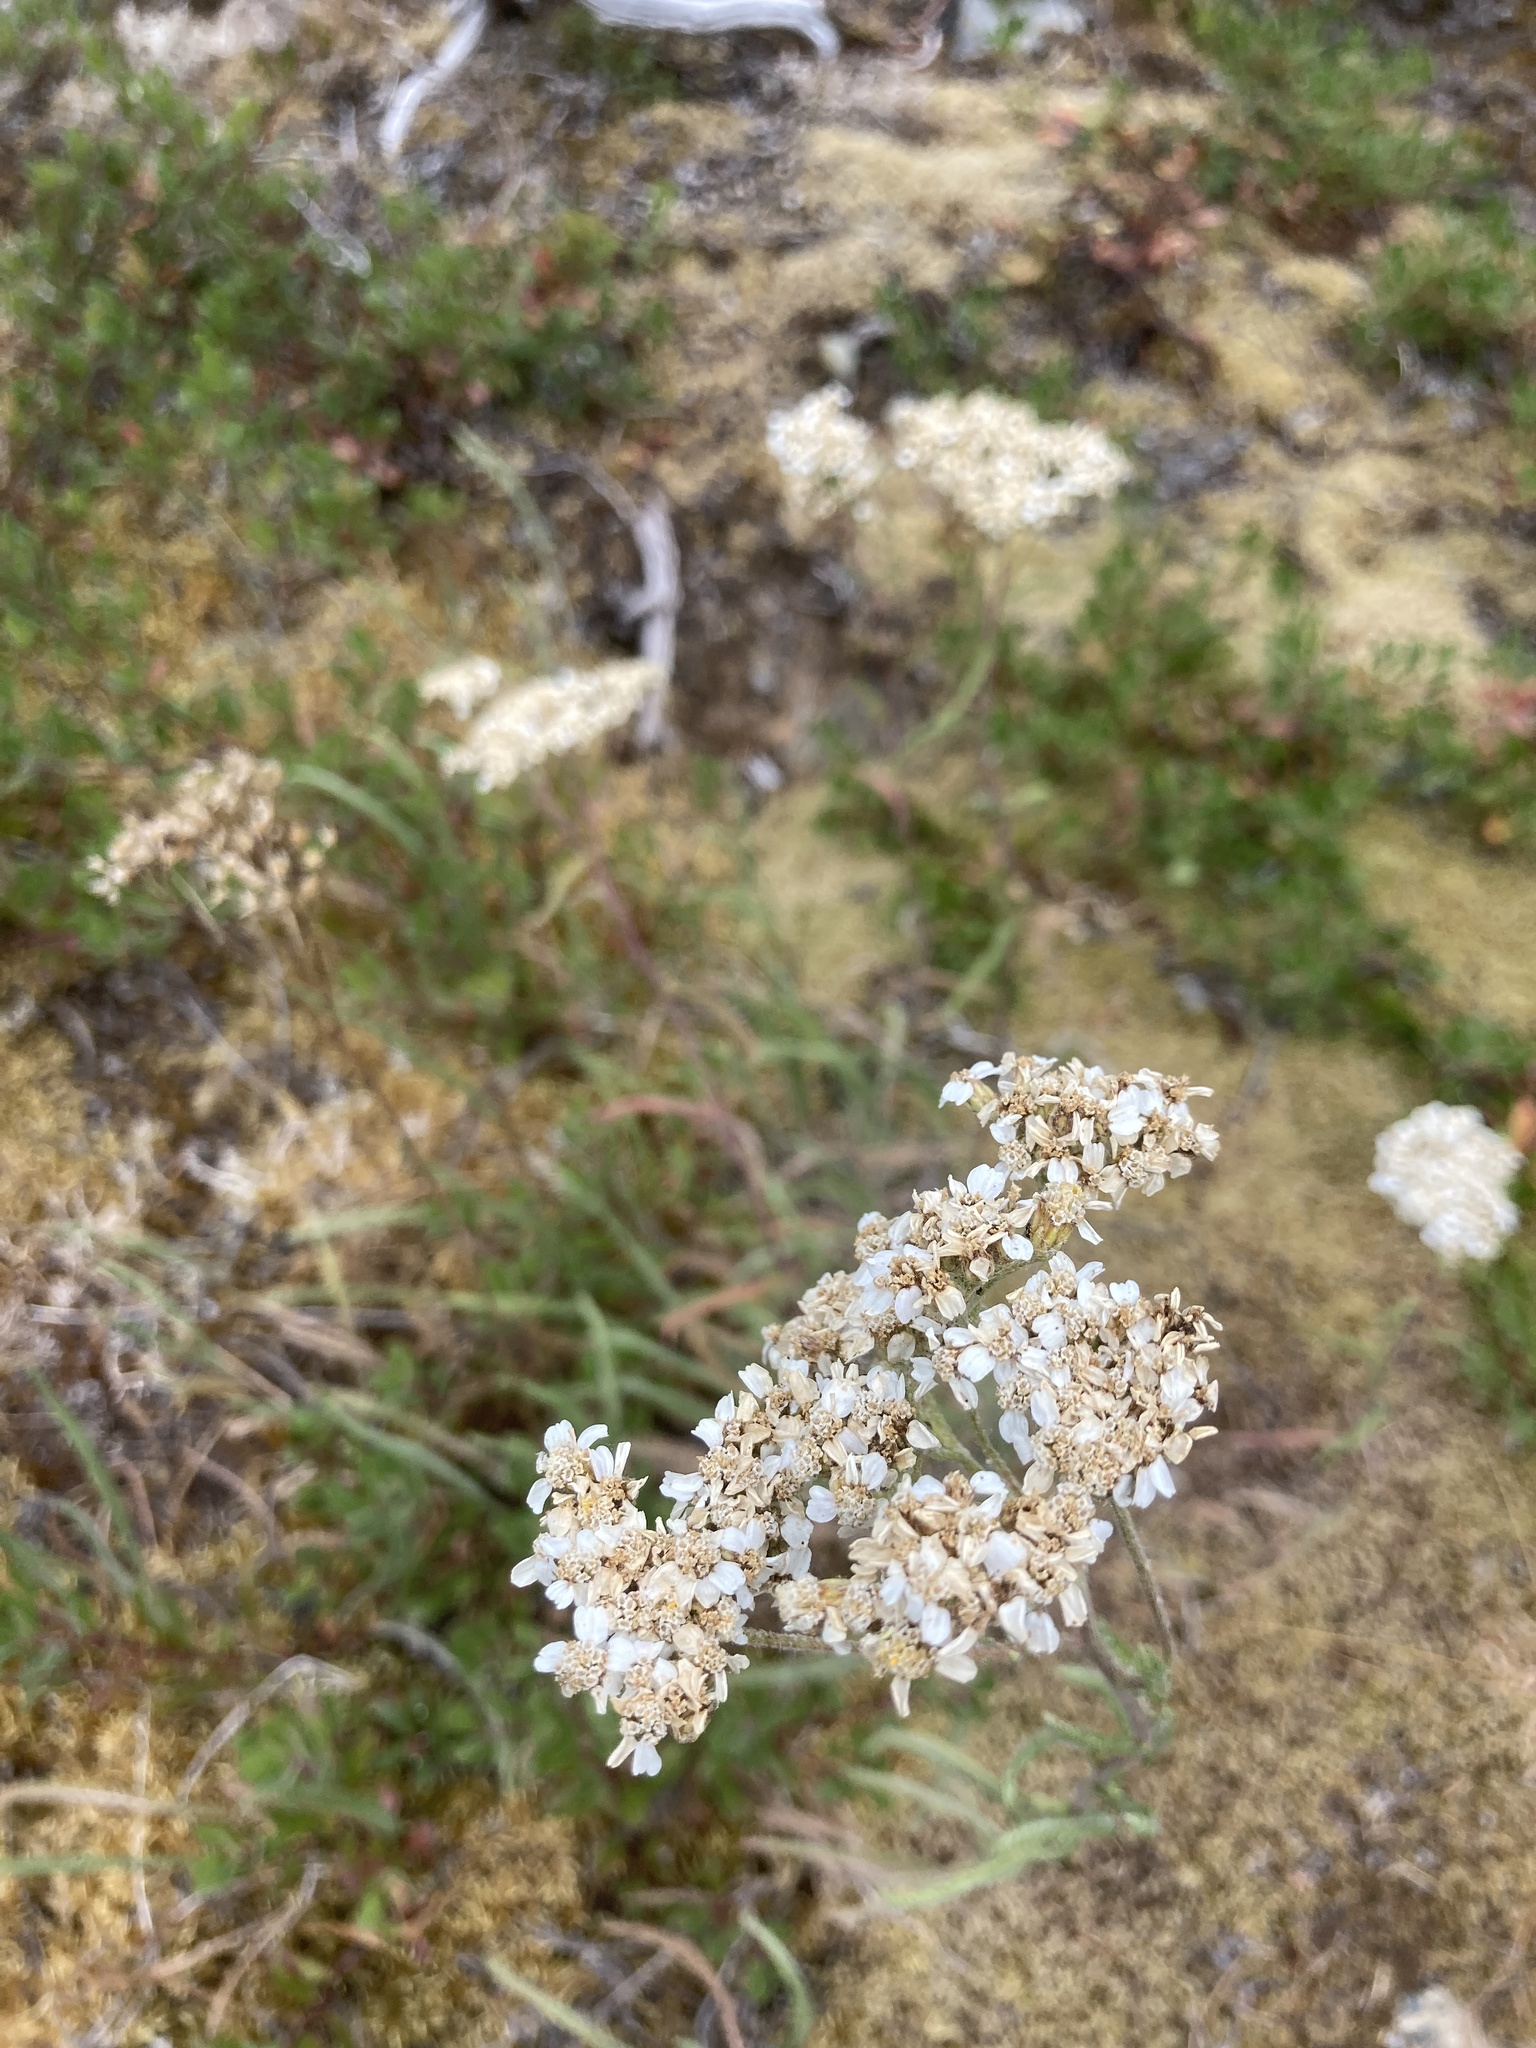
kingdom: Plantae
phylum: Tracheophyta
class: Magnoliopsida
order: Asterales
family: Asteraceae
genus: Achillea
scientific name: Achillea millefolium
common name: Yarrow
